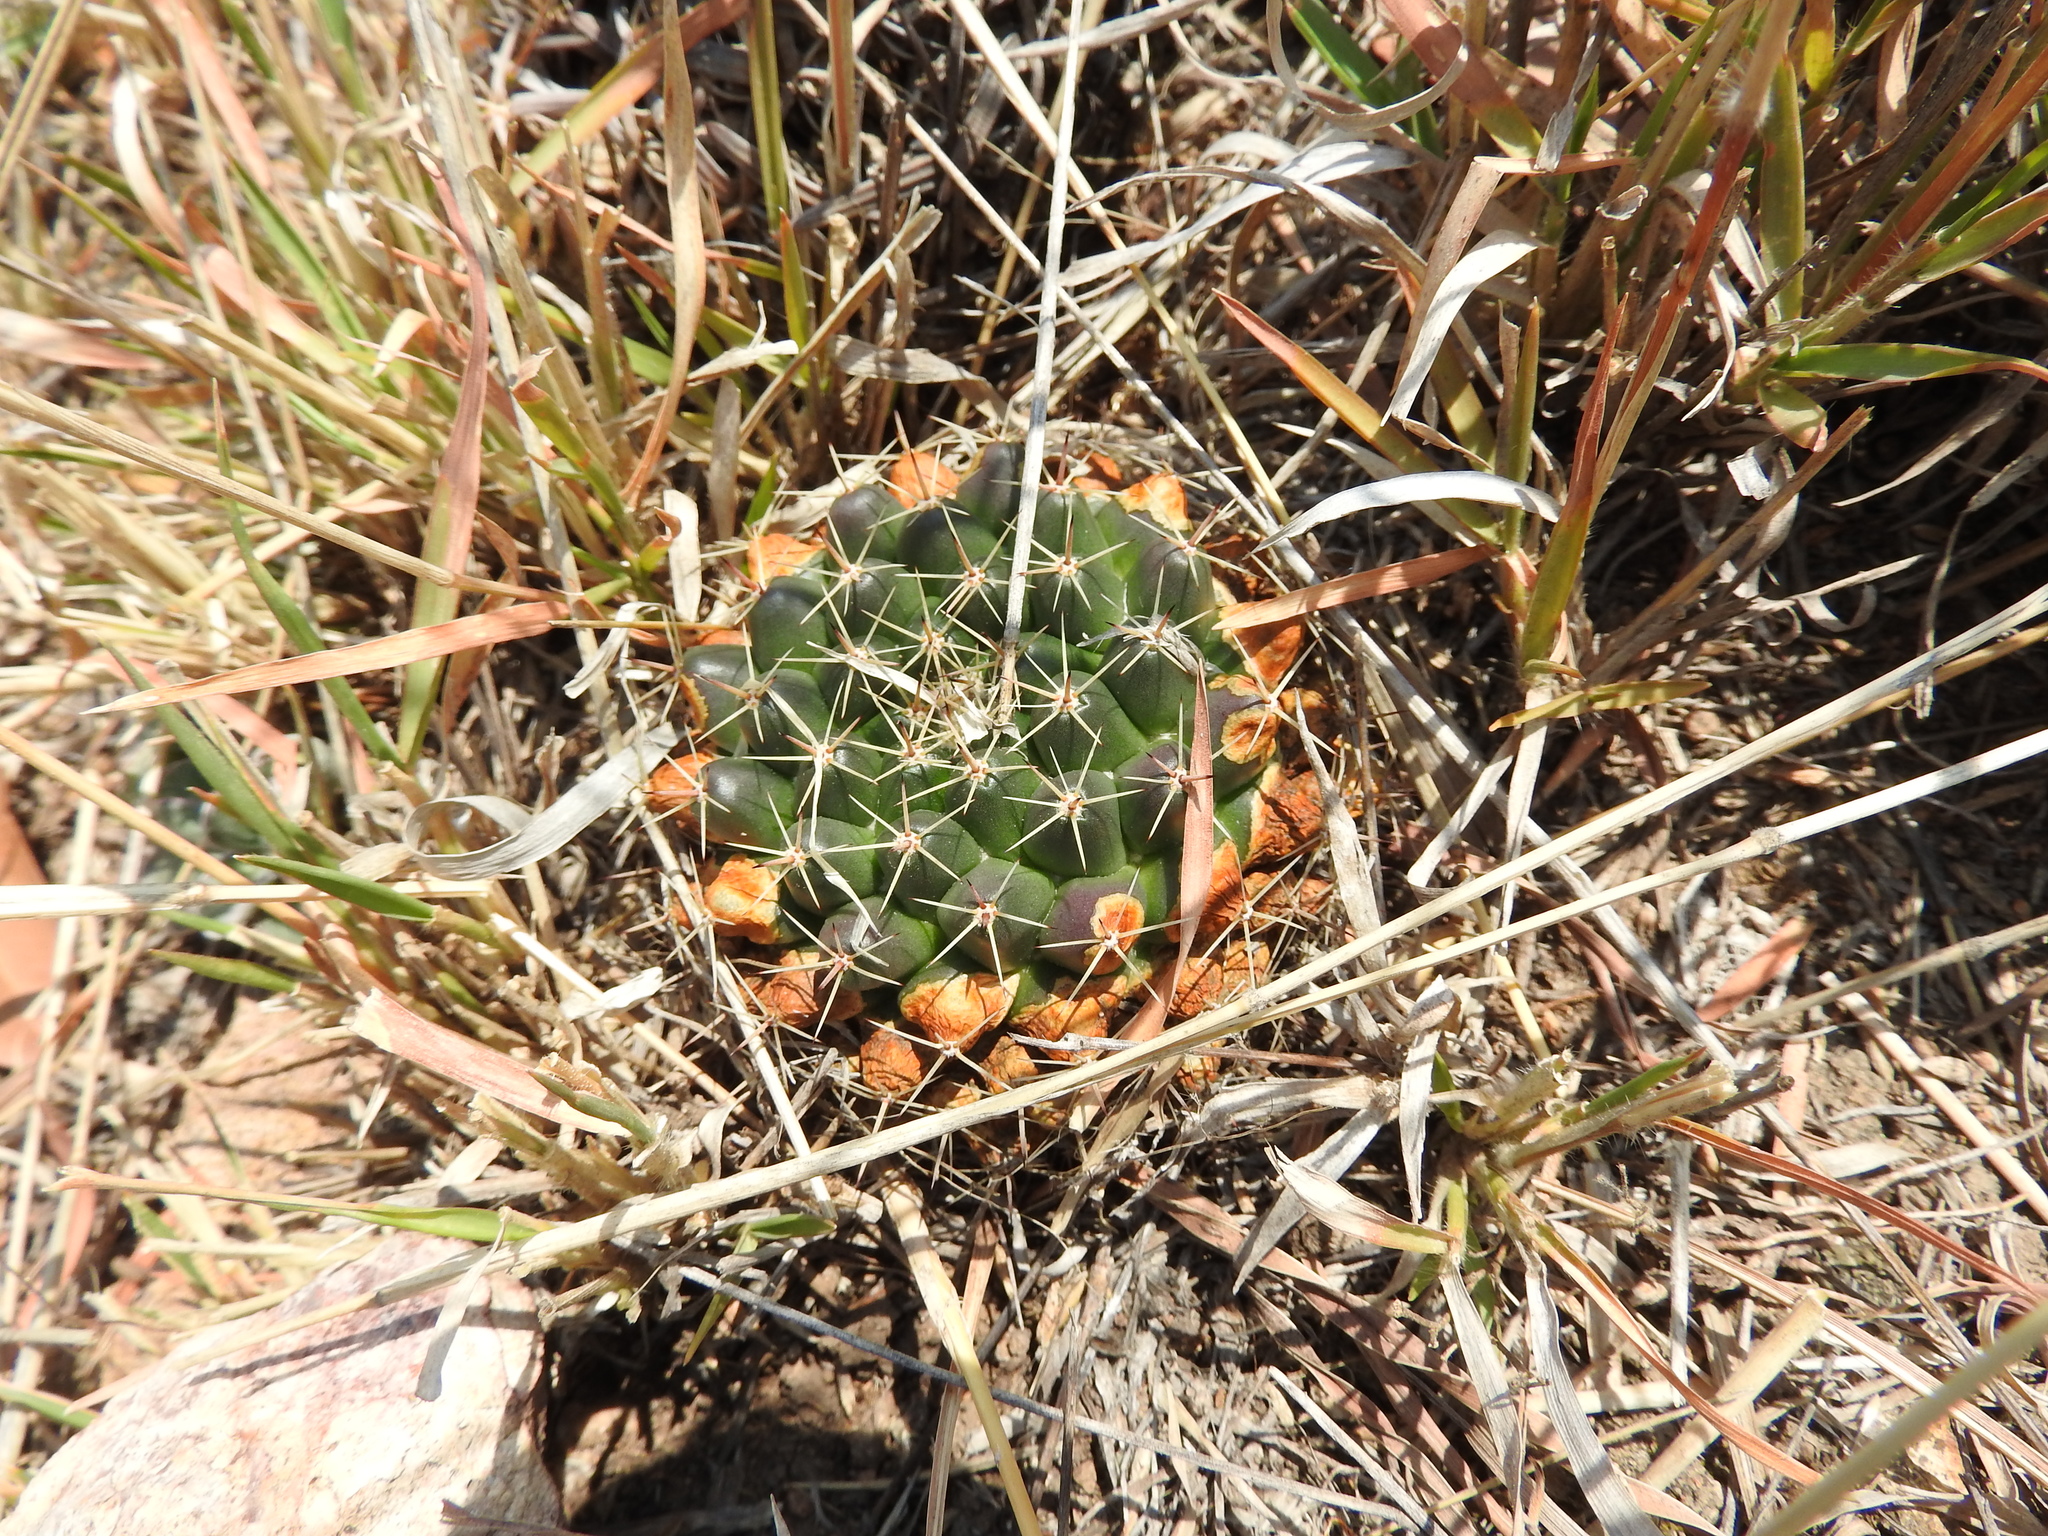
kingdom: Plantae
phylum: Tracheophyta
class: Magnoliopsida
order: Caryophyllales
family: Cactaceae
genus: Mammillaria
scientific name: Mammillaria gigantea
